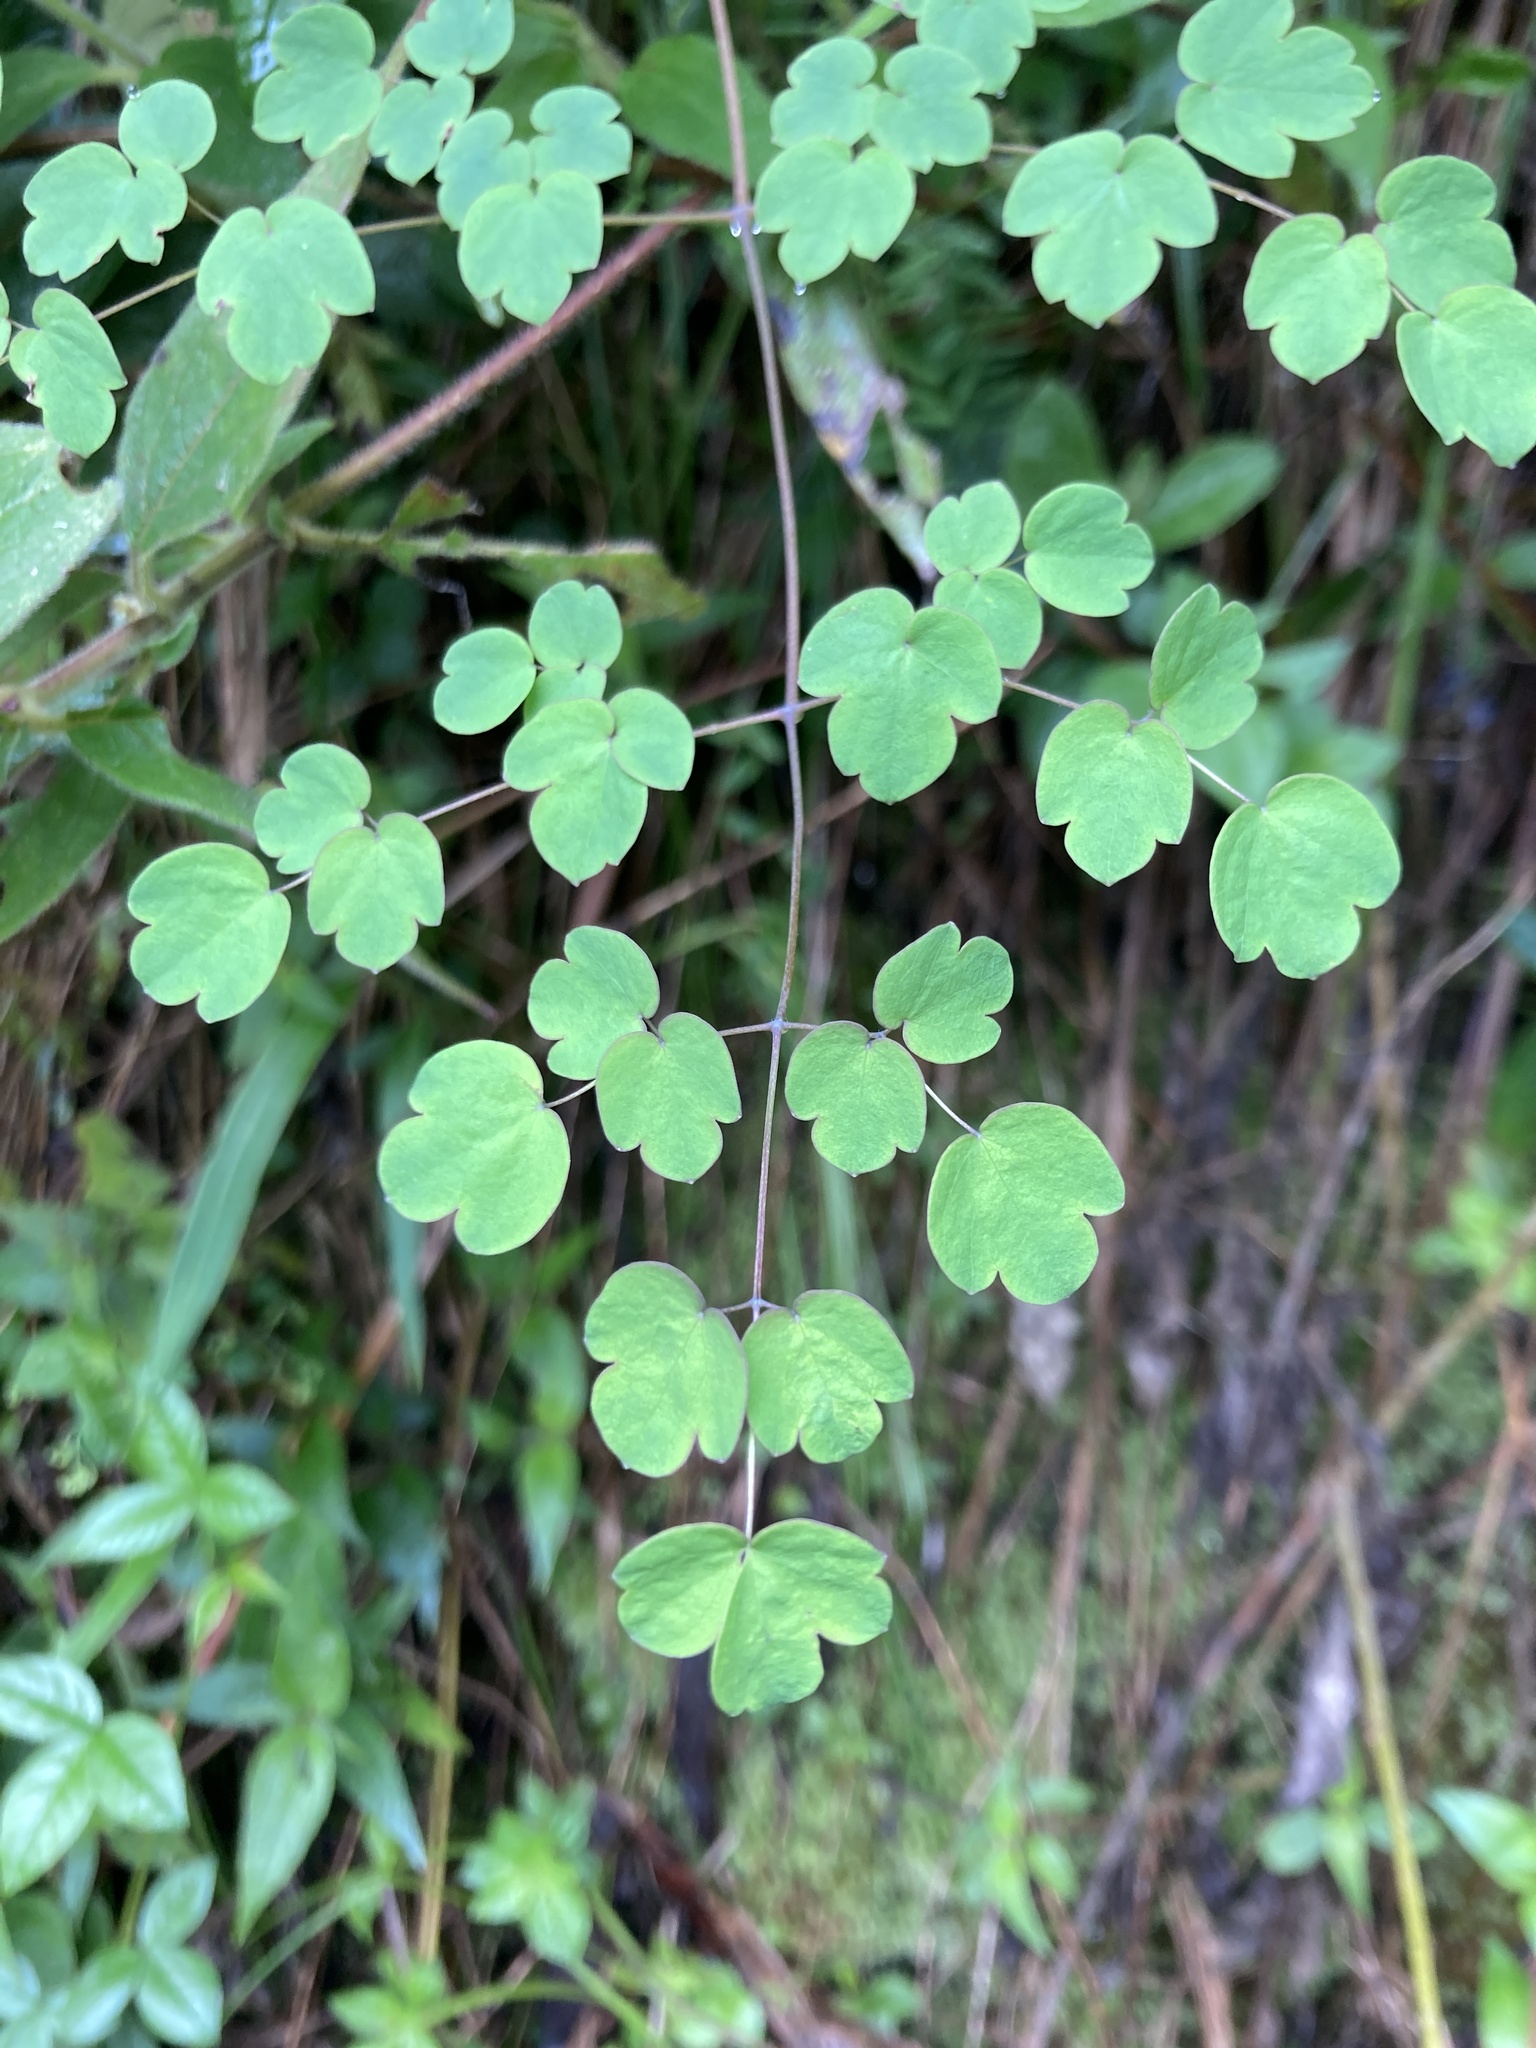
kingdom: Plantae
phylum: Tracheophyta
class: Magnoliopsida
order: Ranunculales
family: Ranunculaceae
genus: Thalictrum
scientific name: Thalictrum podocarpum
